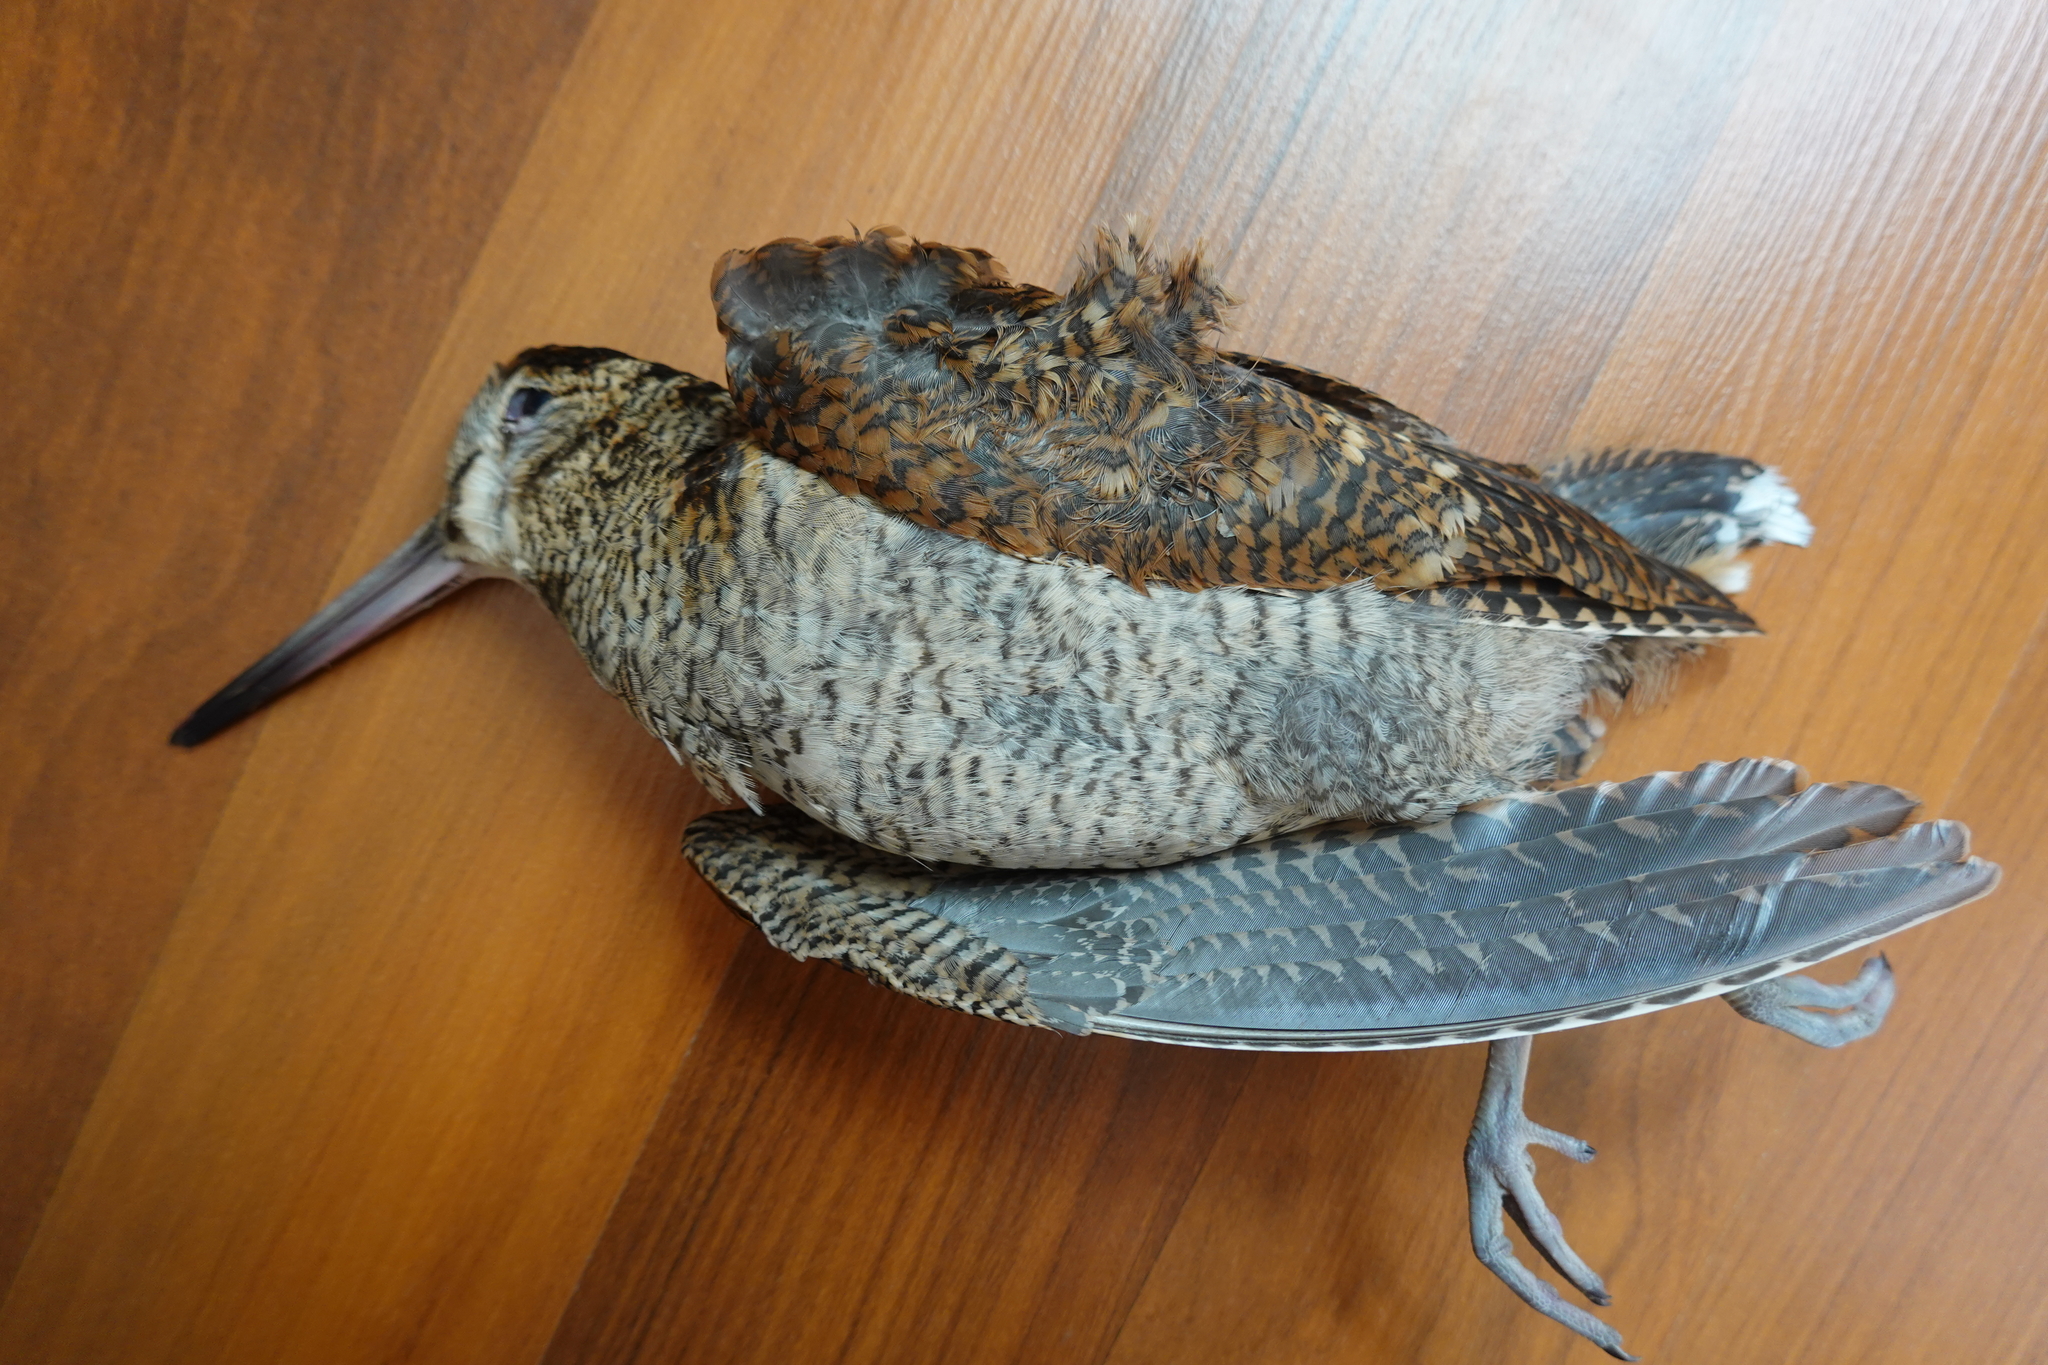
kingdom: Animalia
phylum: Chordata
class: Aves
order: Charadriiformes
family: Scolopacidae
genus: Scolopax
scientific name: Scolopax rusticola
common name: Eurasian woodcock
